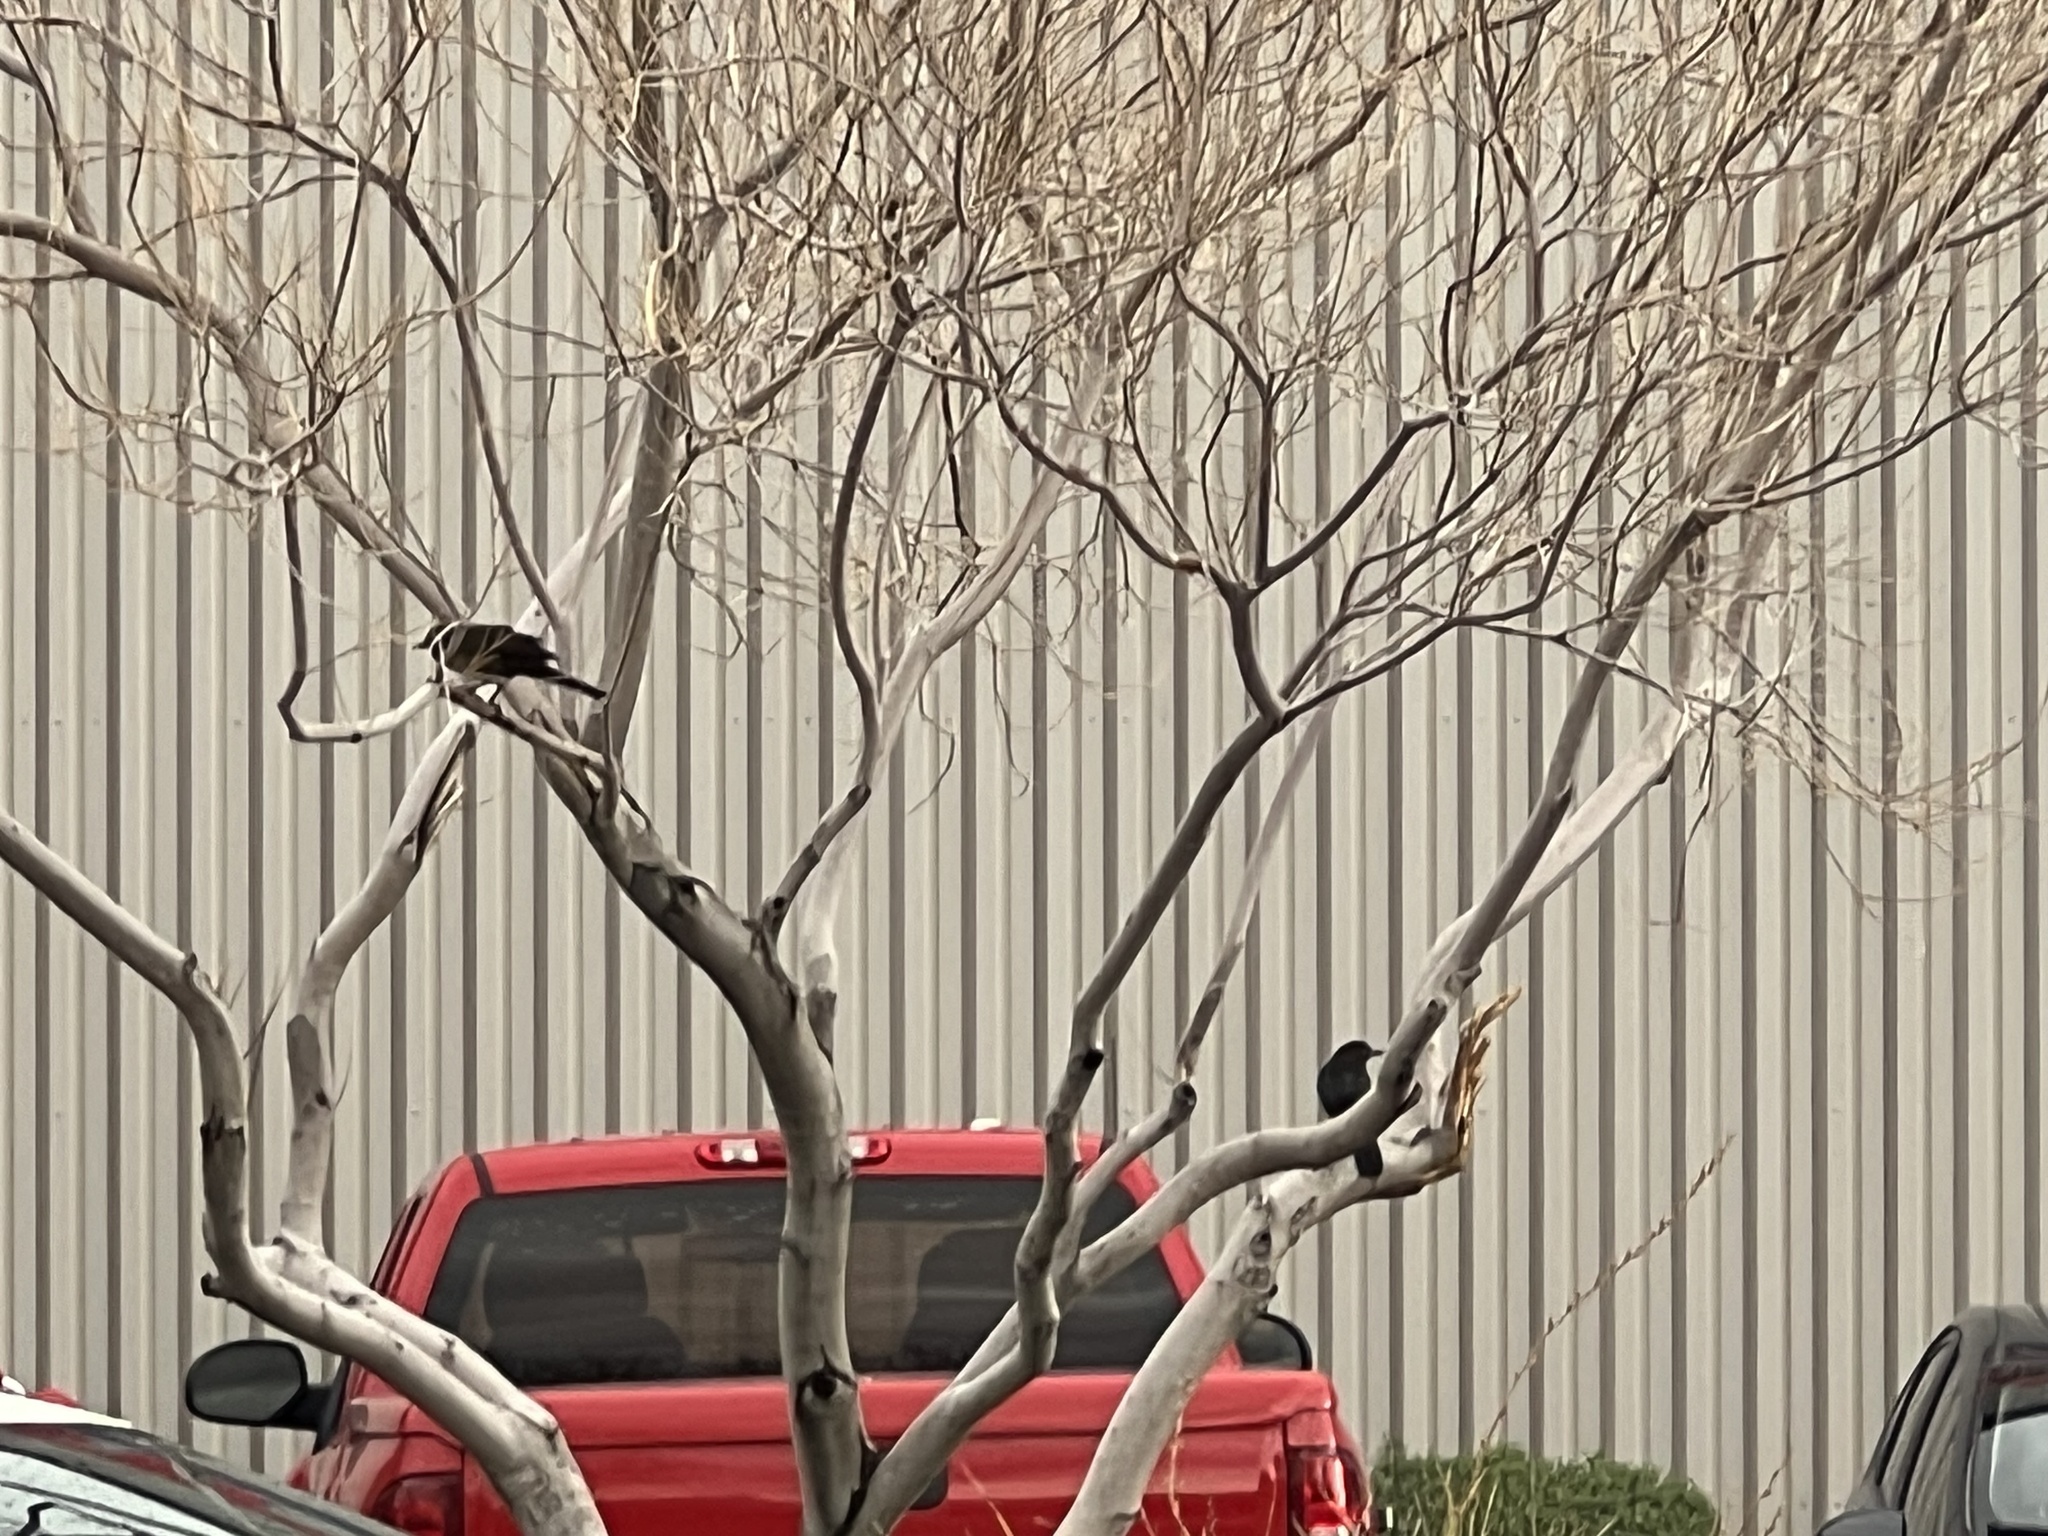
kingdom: Animalia
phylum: Chordata
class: Aves
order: Passeriformes
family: Icteridae
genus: Quiscalus
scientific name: Quiscalus mexicanus
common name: Great-tailed grackle
